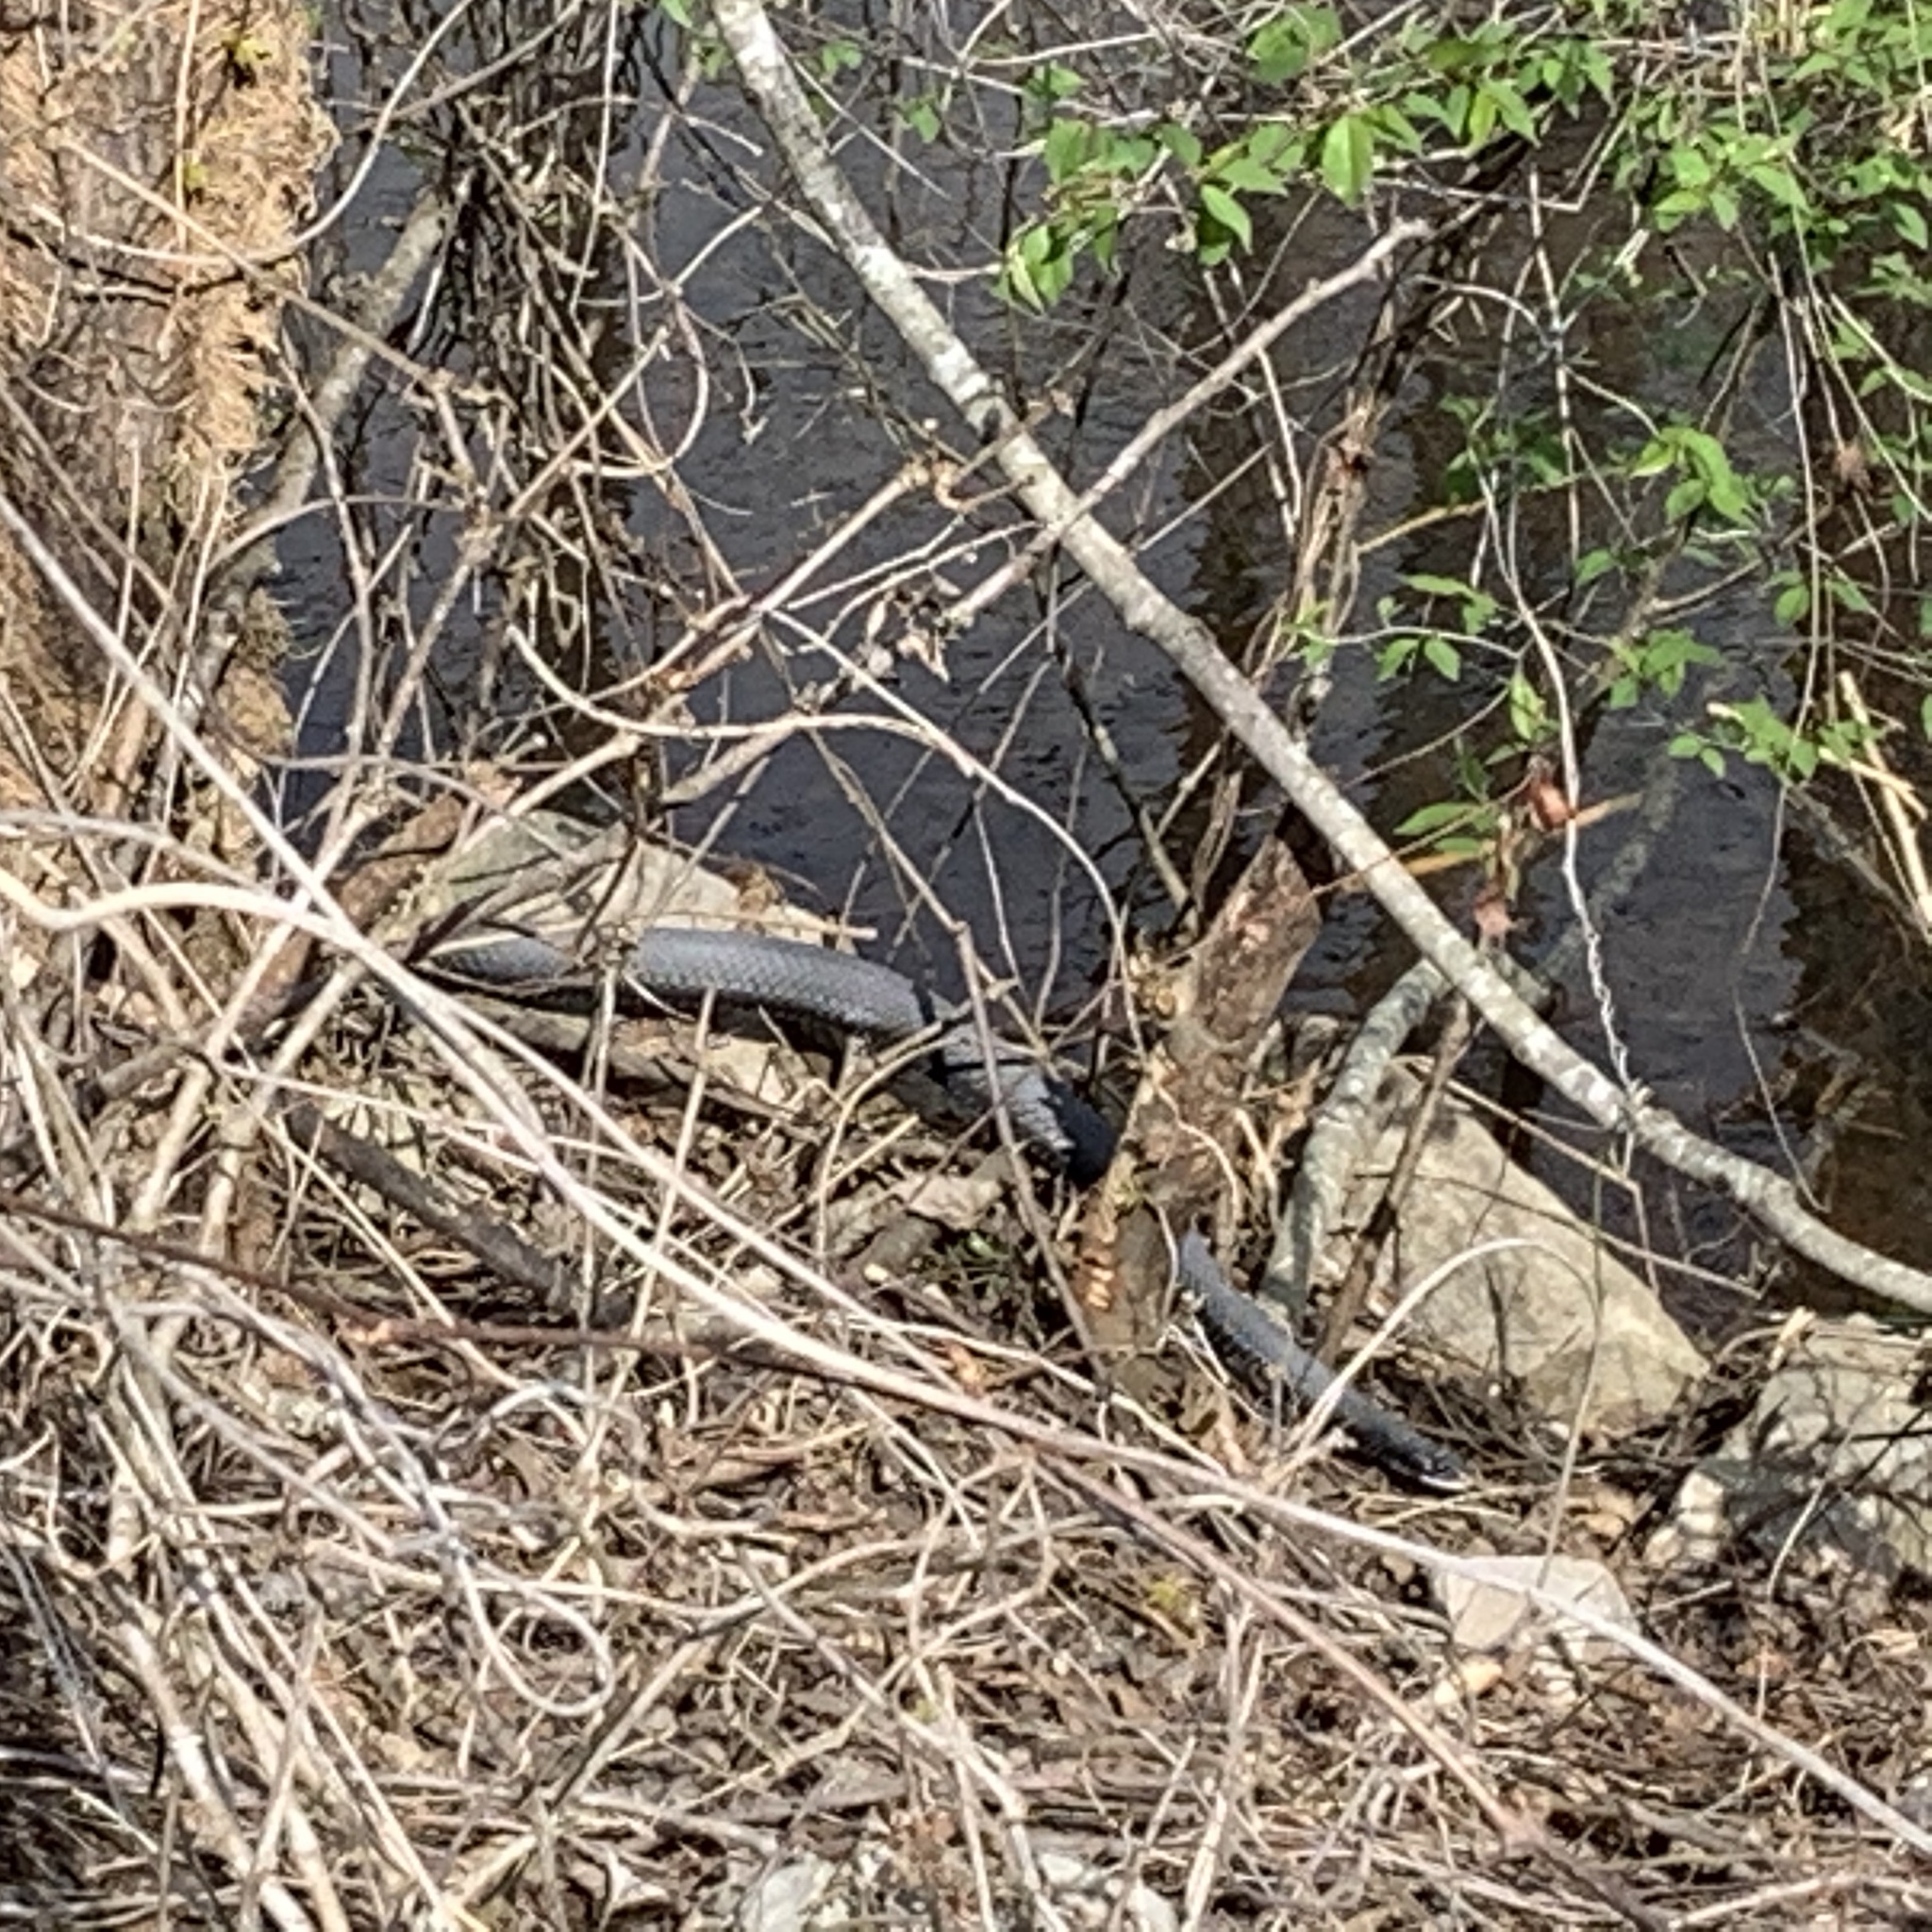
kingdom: Animalia
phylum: Chordata
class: Squamata
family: Colubridae
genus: Coluber
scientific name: Coluber constrictor
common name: Eastern racer
